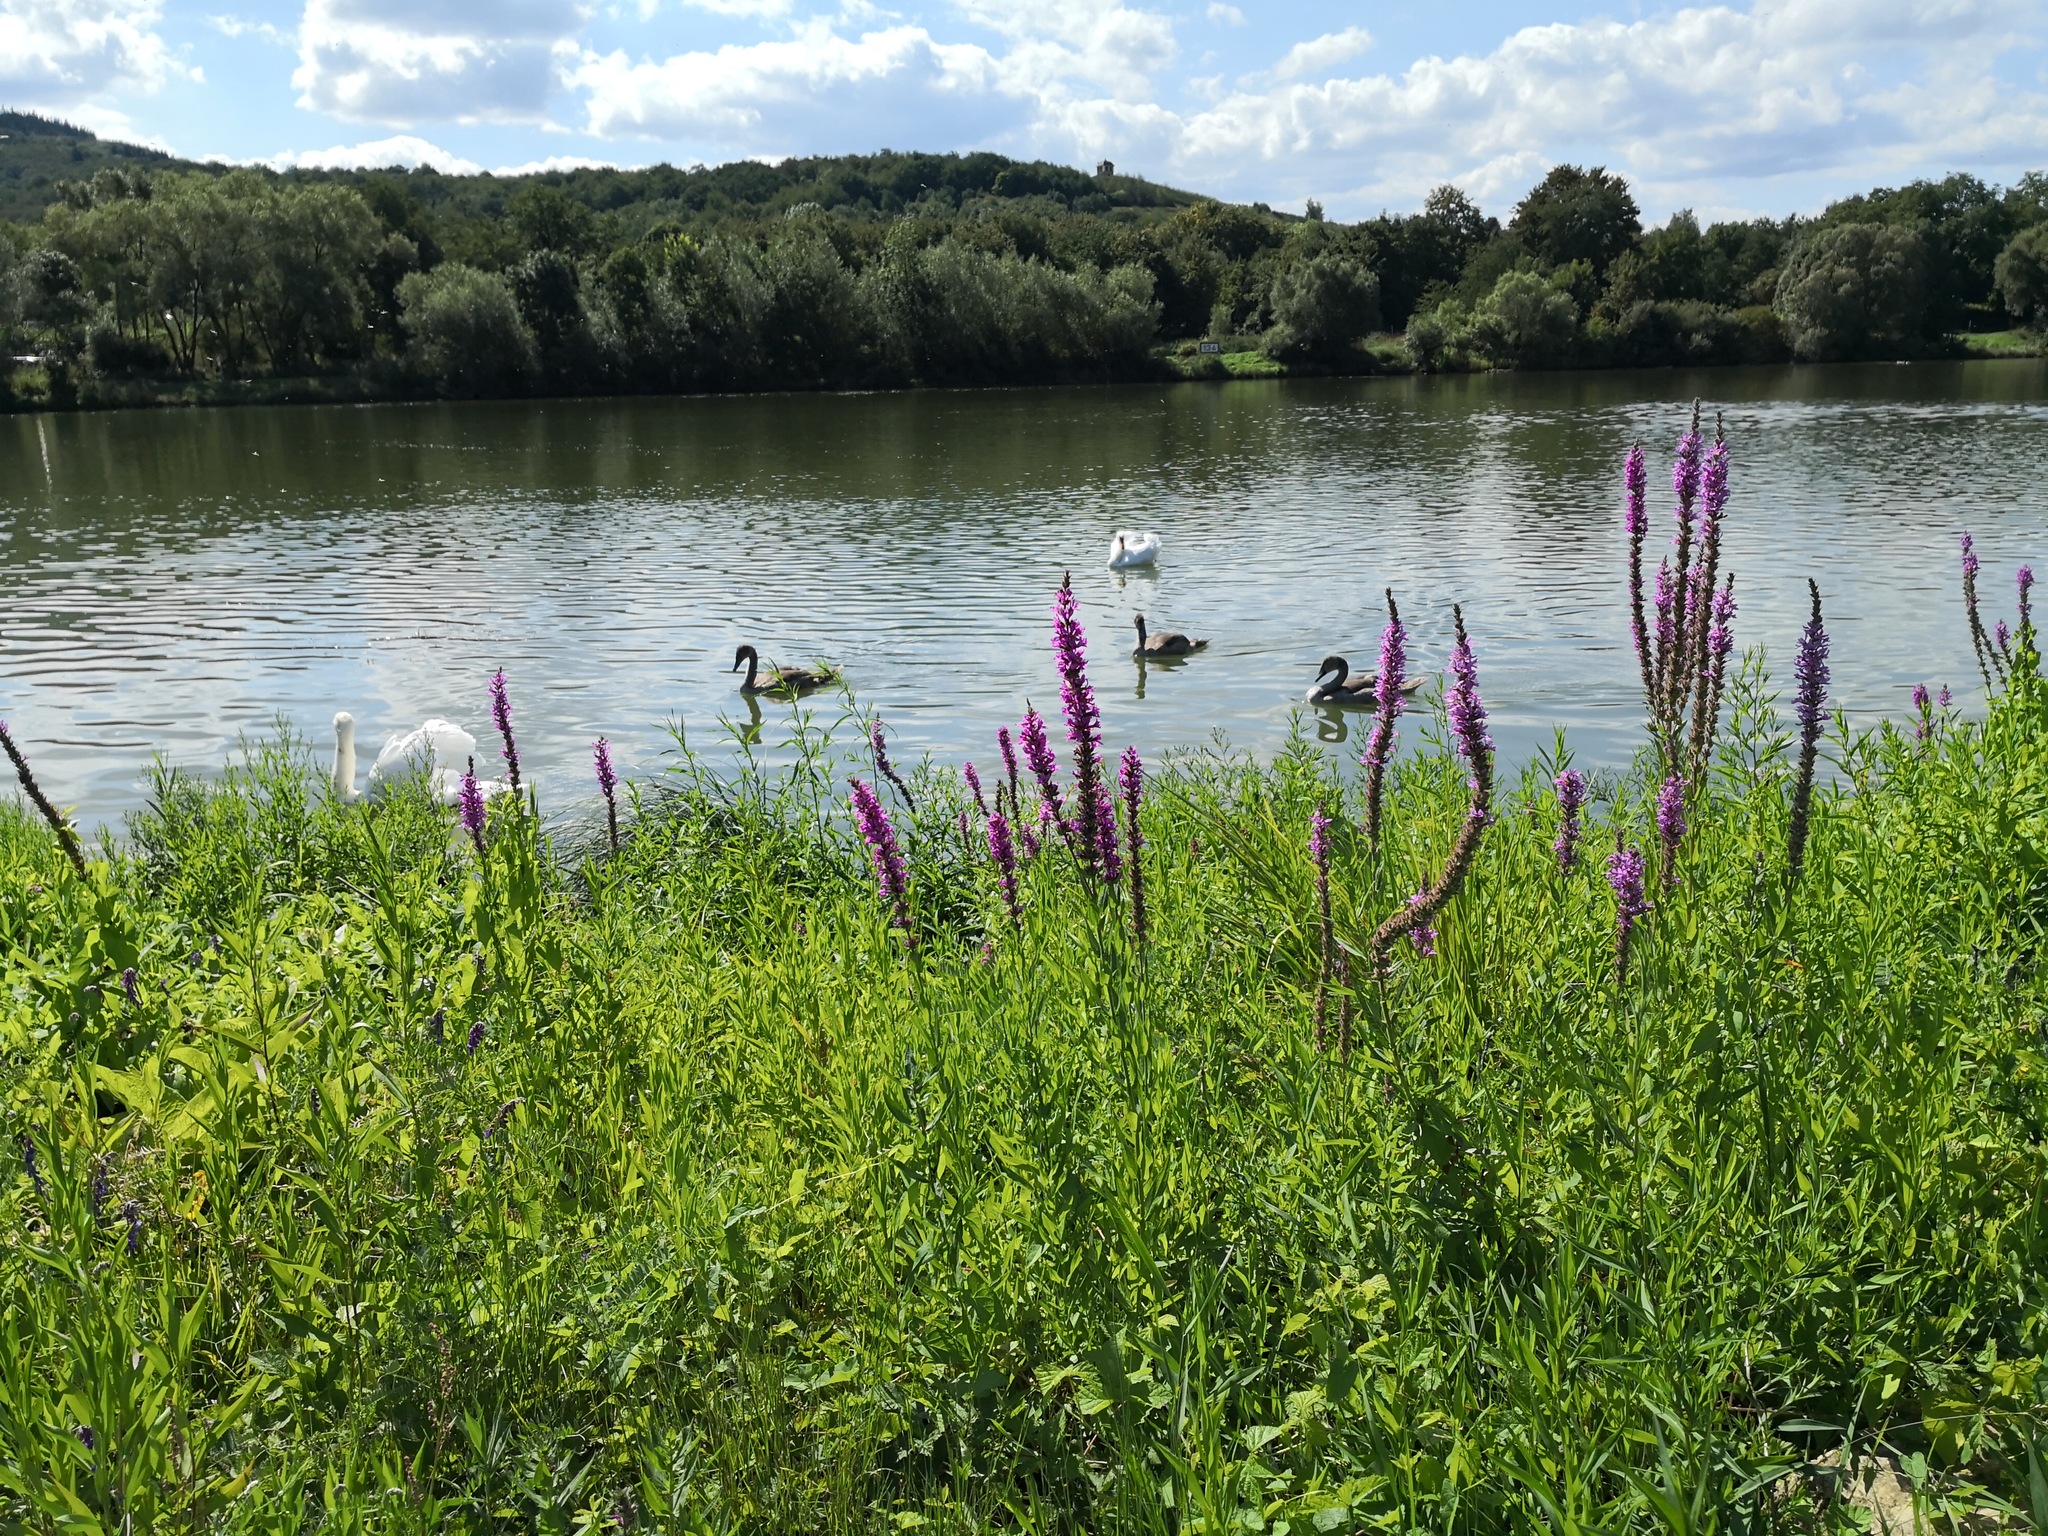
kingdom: Plantae
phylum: Tracheophyta
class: Magnoliopsida
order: Myrtales
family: Lythraceae
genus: Lythrum
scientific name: Lythrum salicaria
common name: Purple loosestrife
